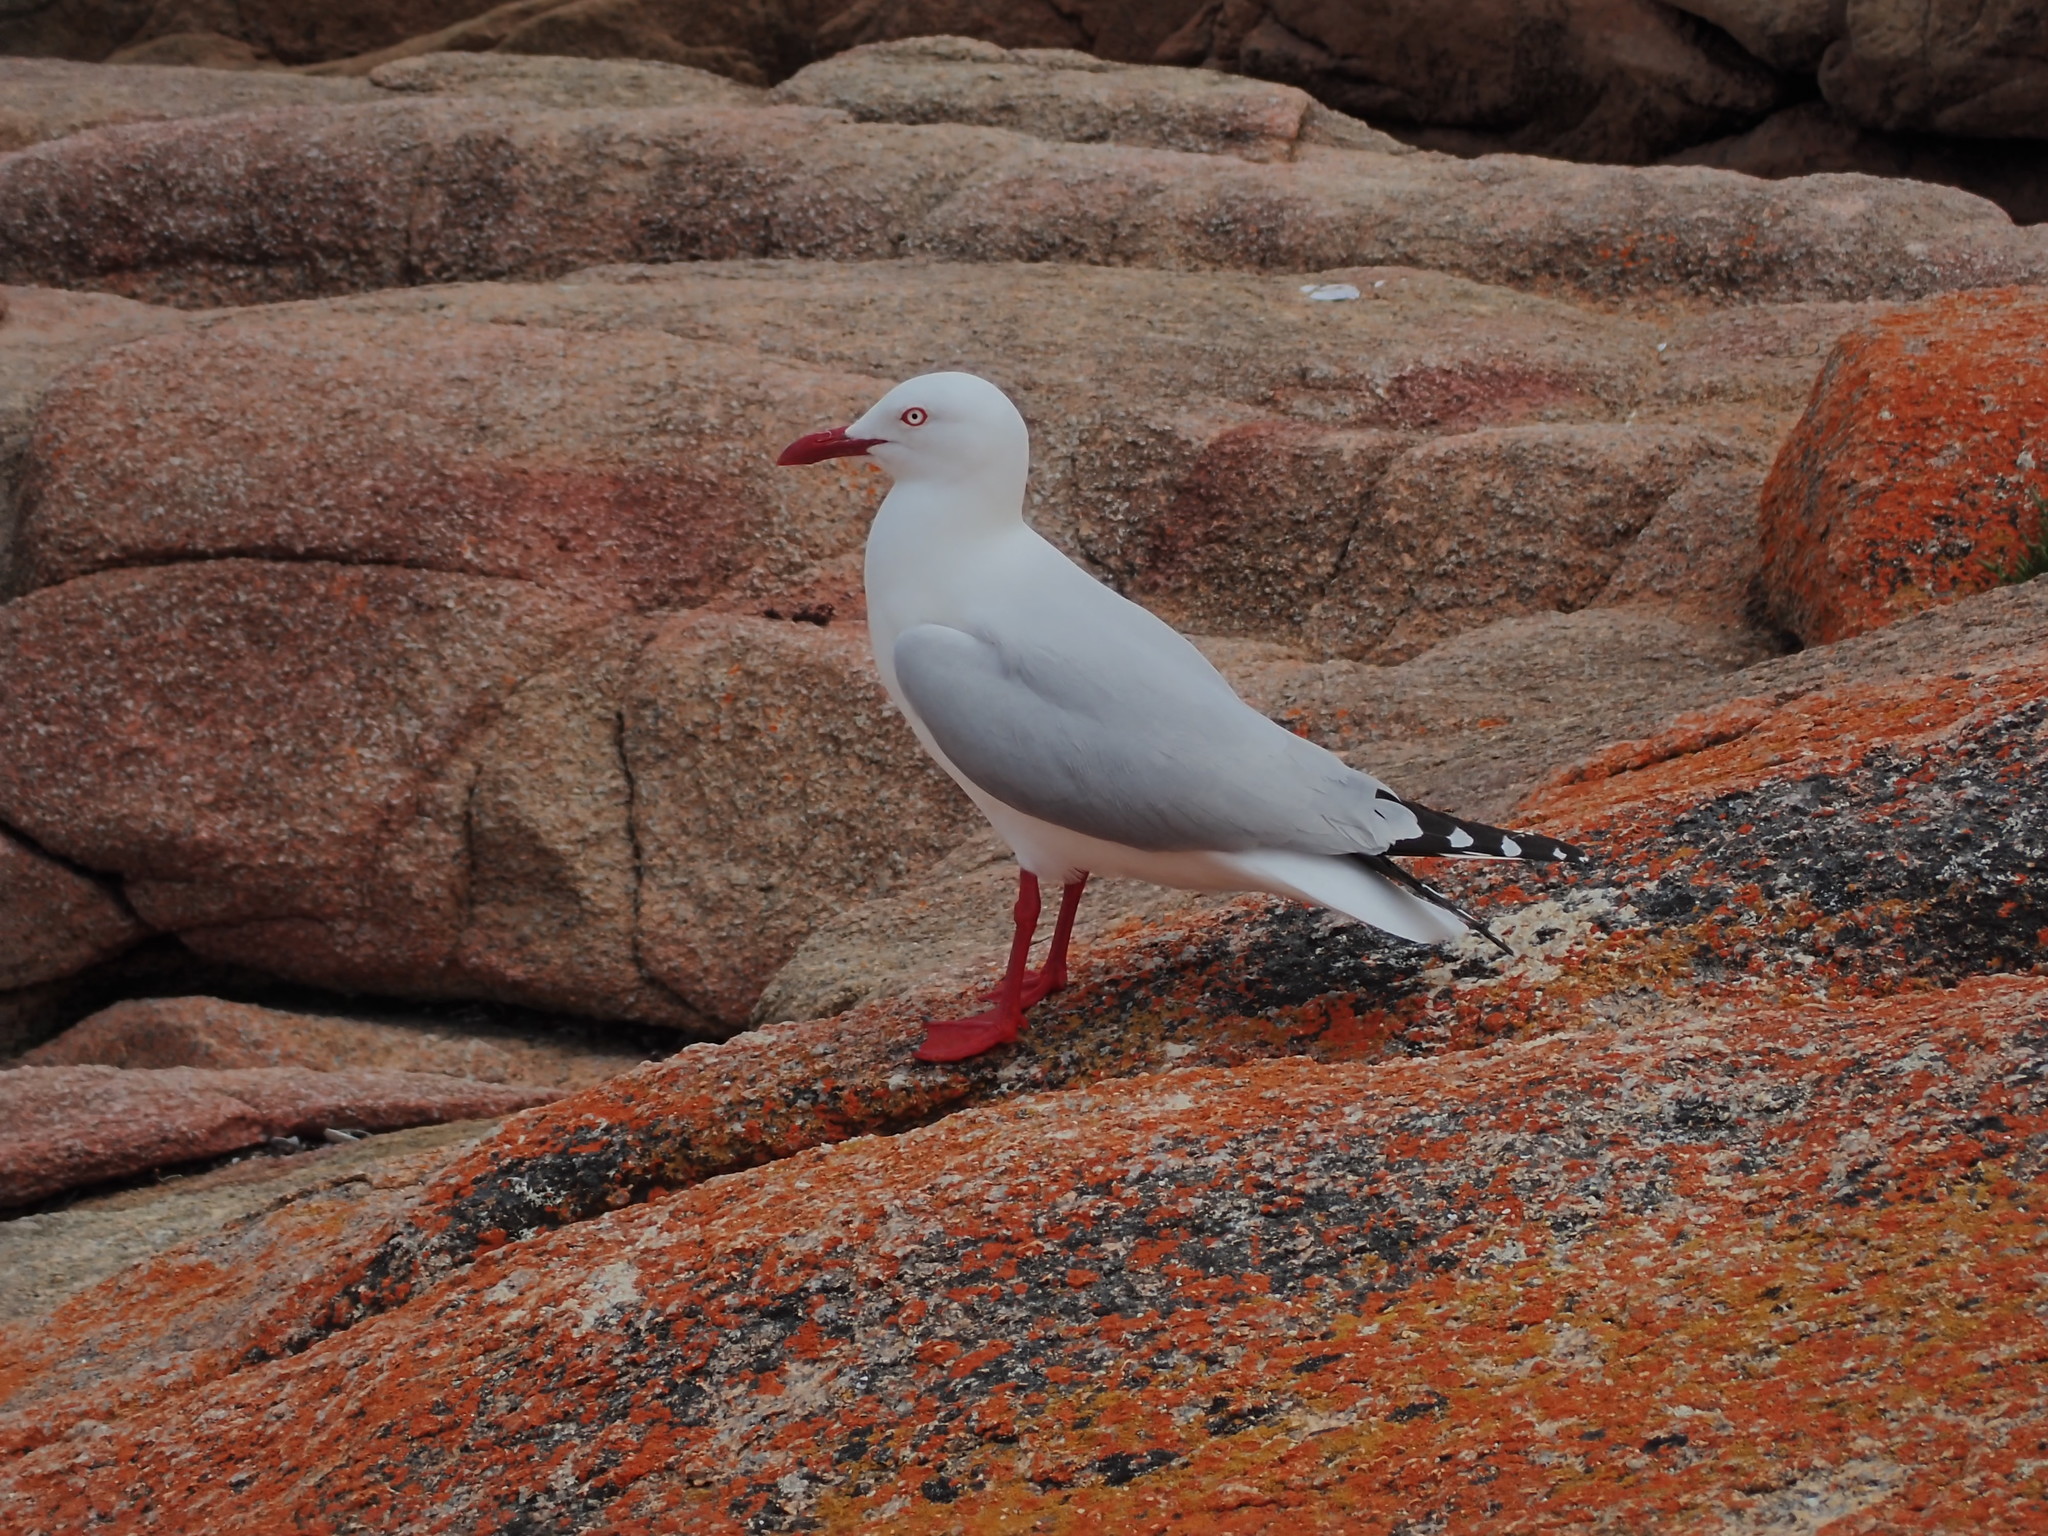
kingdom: Animalia
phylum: Chordata
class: Aves
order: Charadriiformes
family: Laridae
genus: Chroicocephalus
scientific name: Chroicocephalus novaehollandiae
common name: Silver gull
